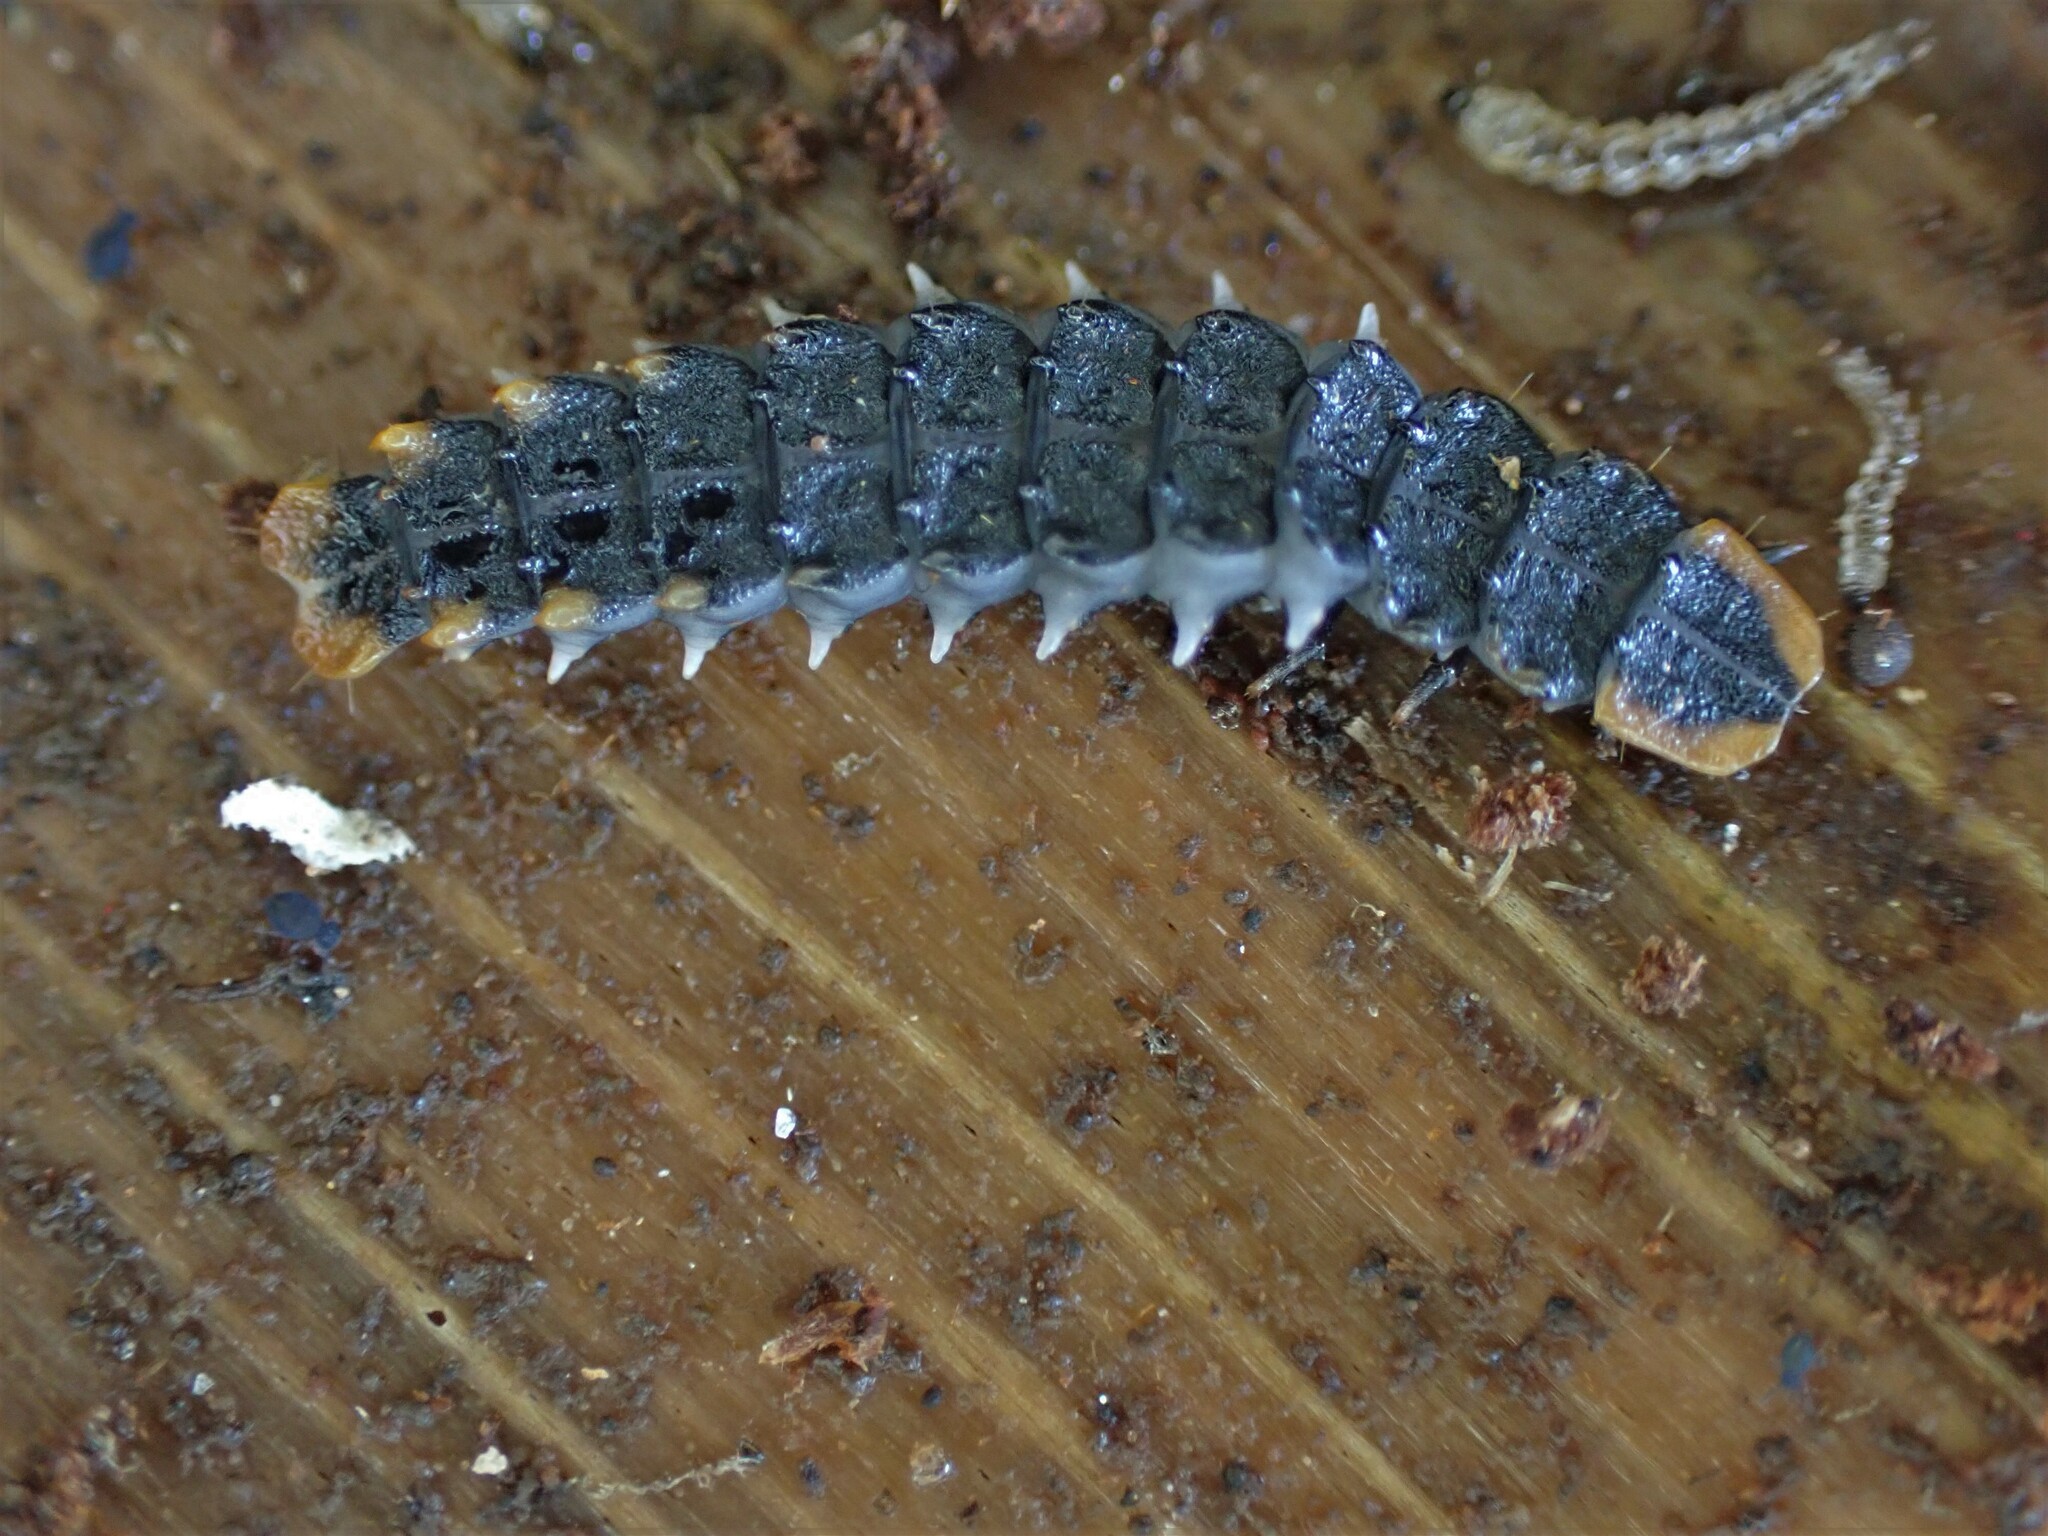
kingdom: Animalia
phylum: Arthropoda
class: Insecta
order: Coleoptera
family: Lycidae
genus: Porrostoma
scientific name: Porrostoma rufipenne
